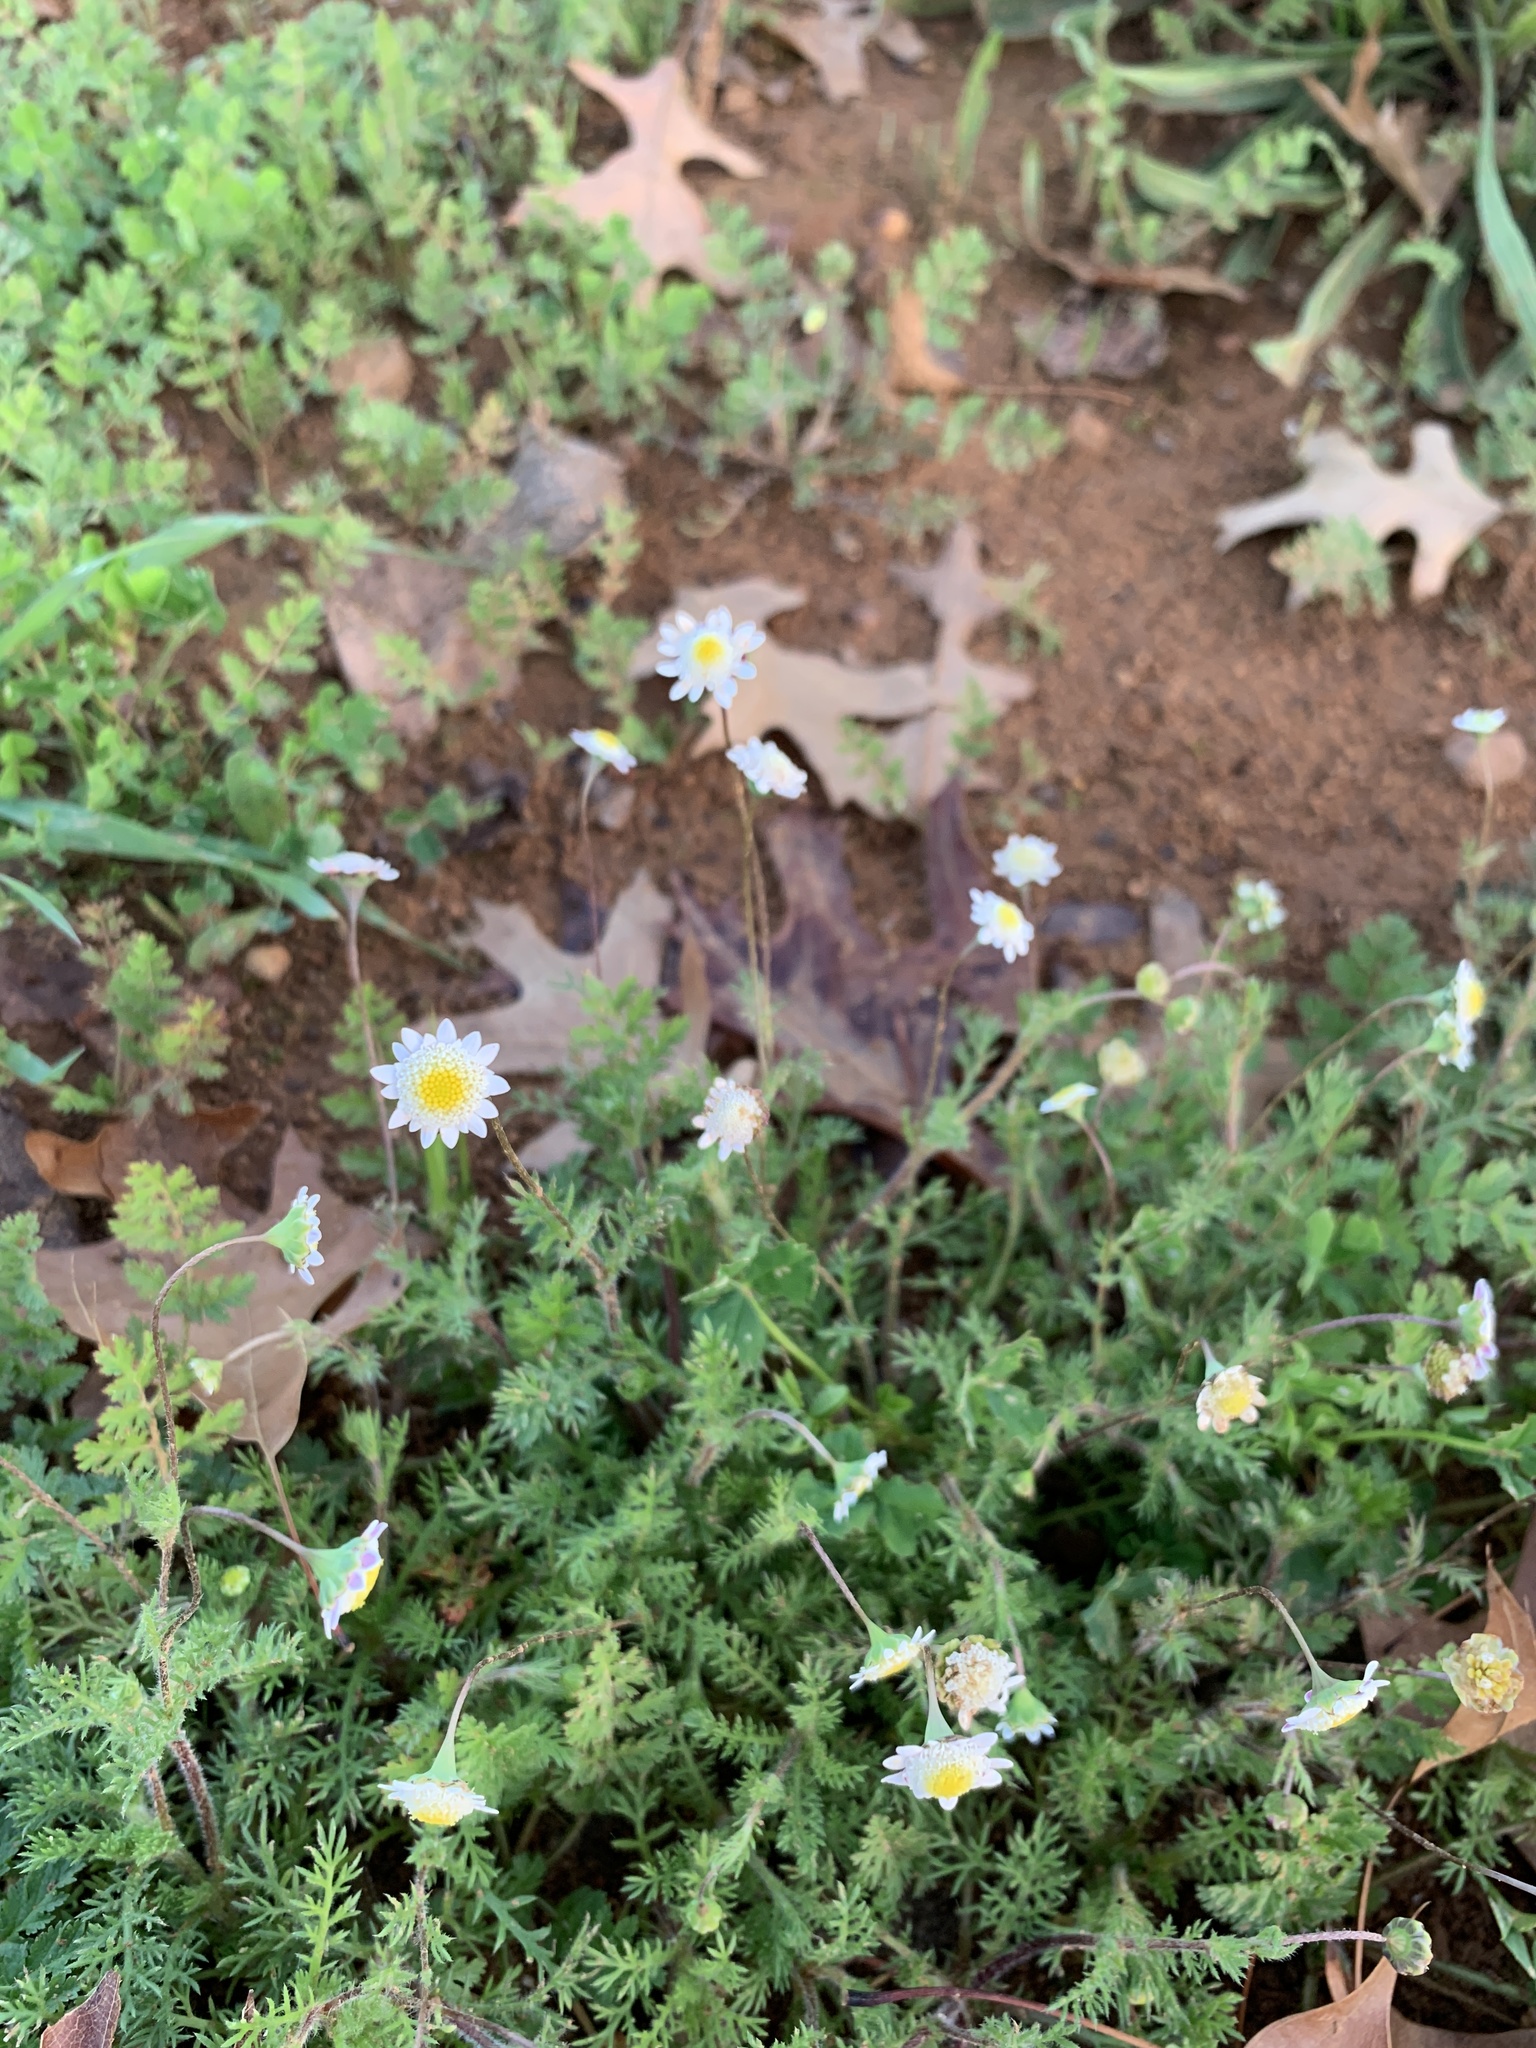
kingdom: Plantae
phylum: Tracheophyta
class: Magnoliopsida
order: Asterales
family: Asteraceae
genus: Cotula
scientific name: Cotula turbinata
